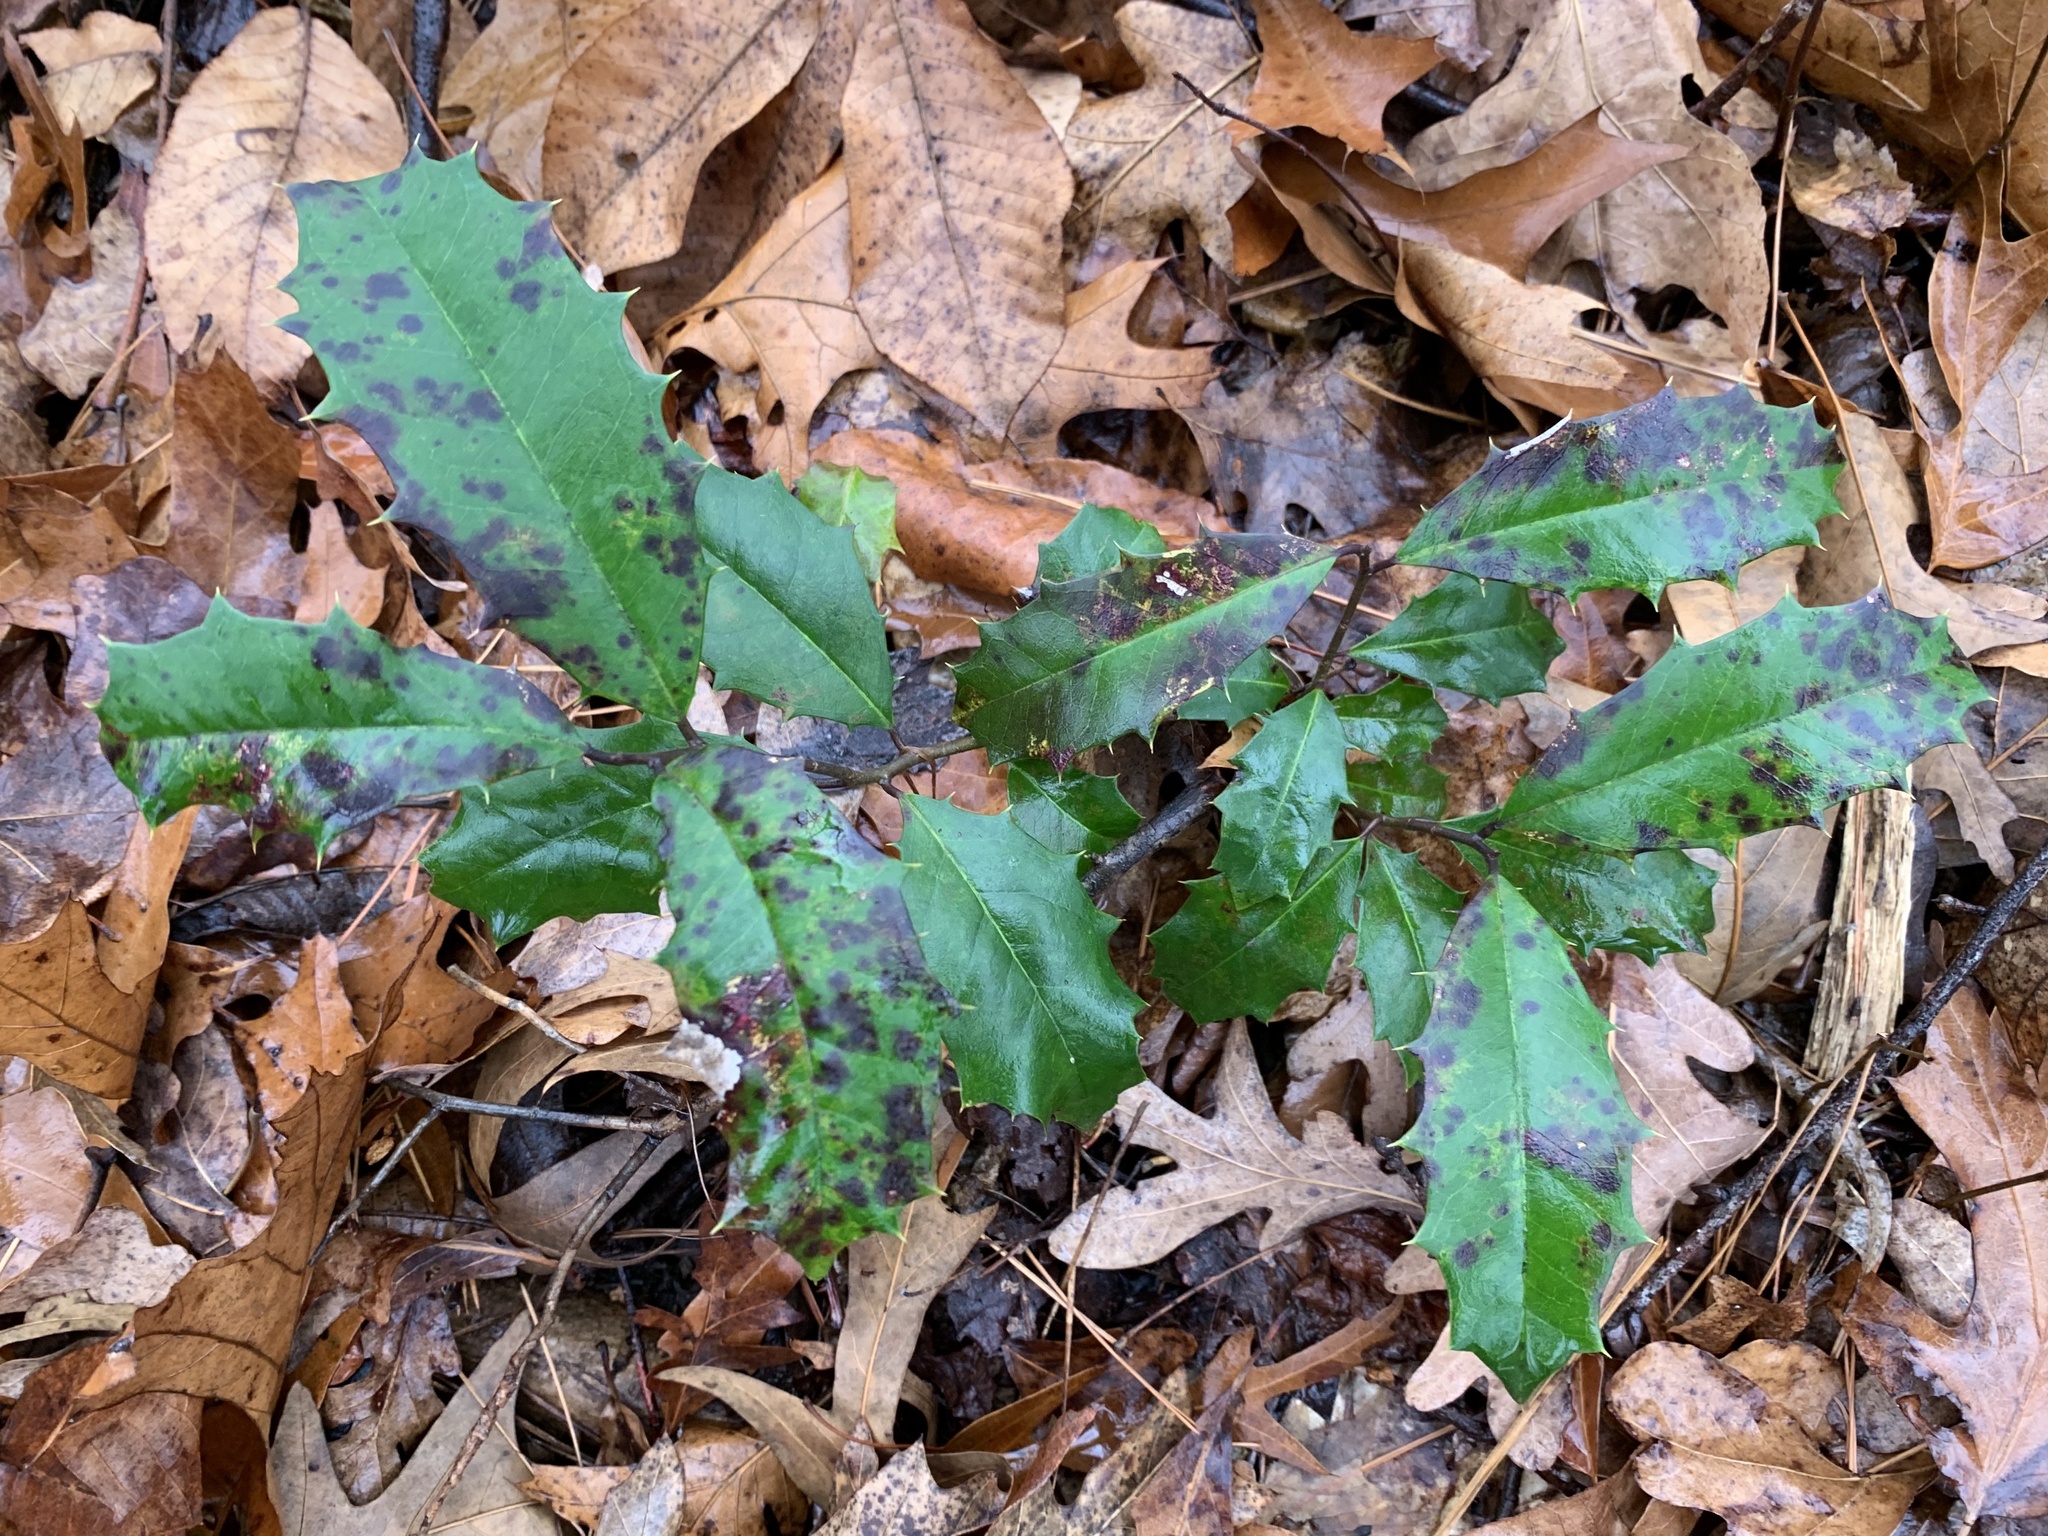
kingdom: Fungi
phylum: Ascomycota
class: Dothideomycetes
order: Pleosporales
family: Coniothyriaceae
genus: Coniothyrium
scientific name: Coniothyrium ilicinum
